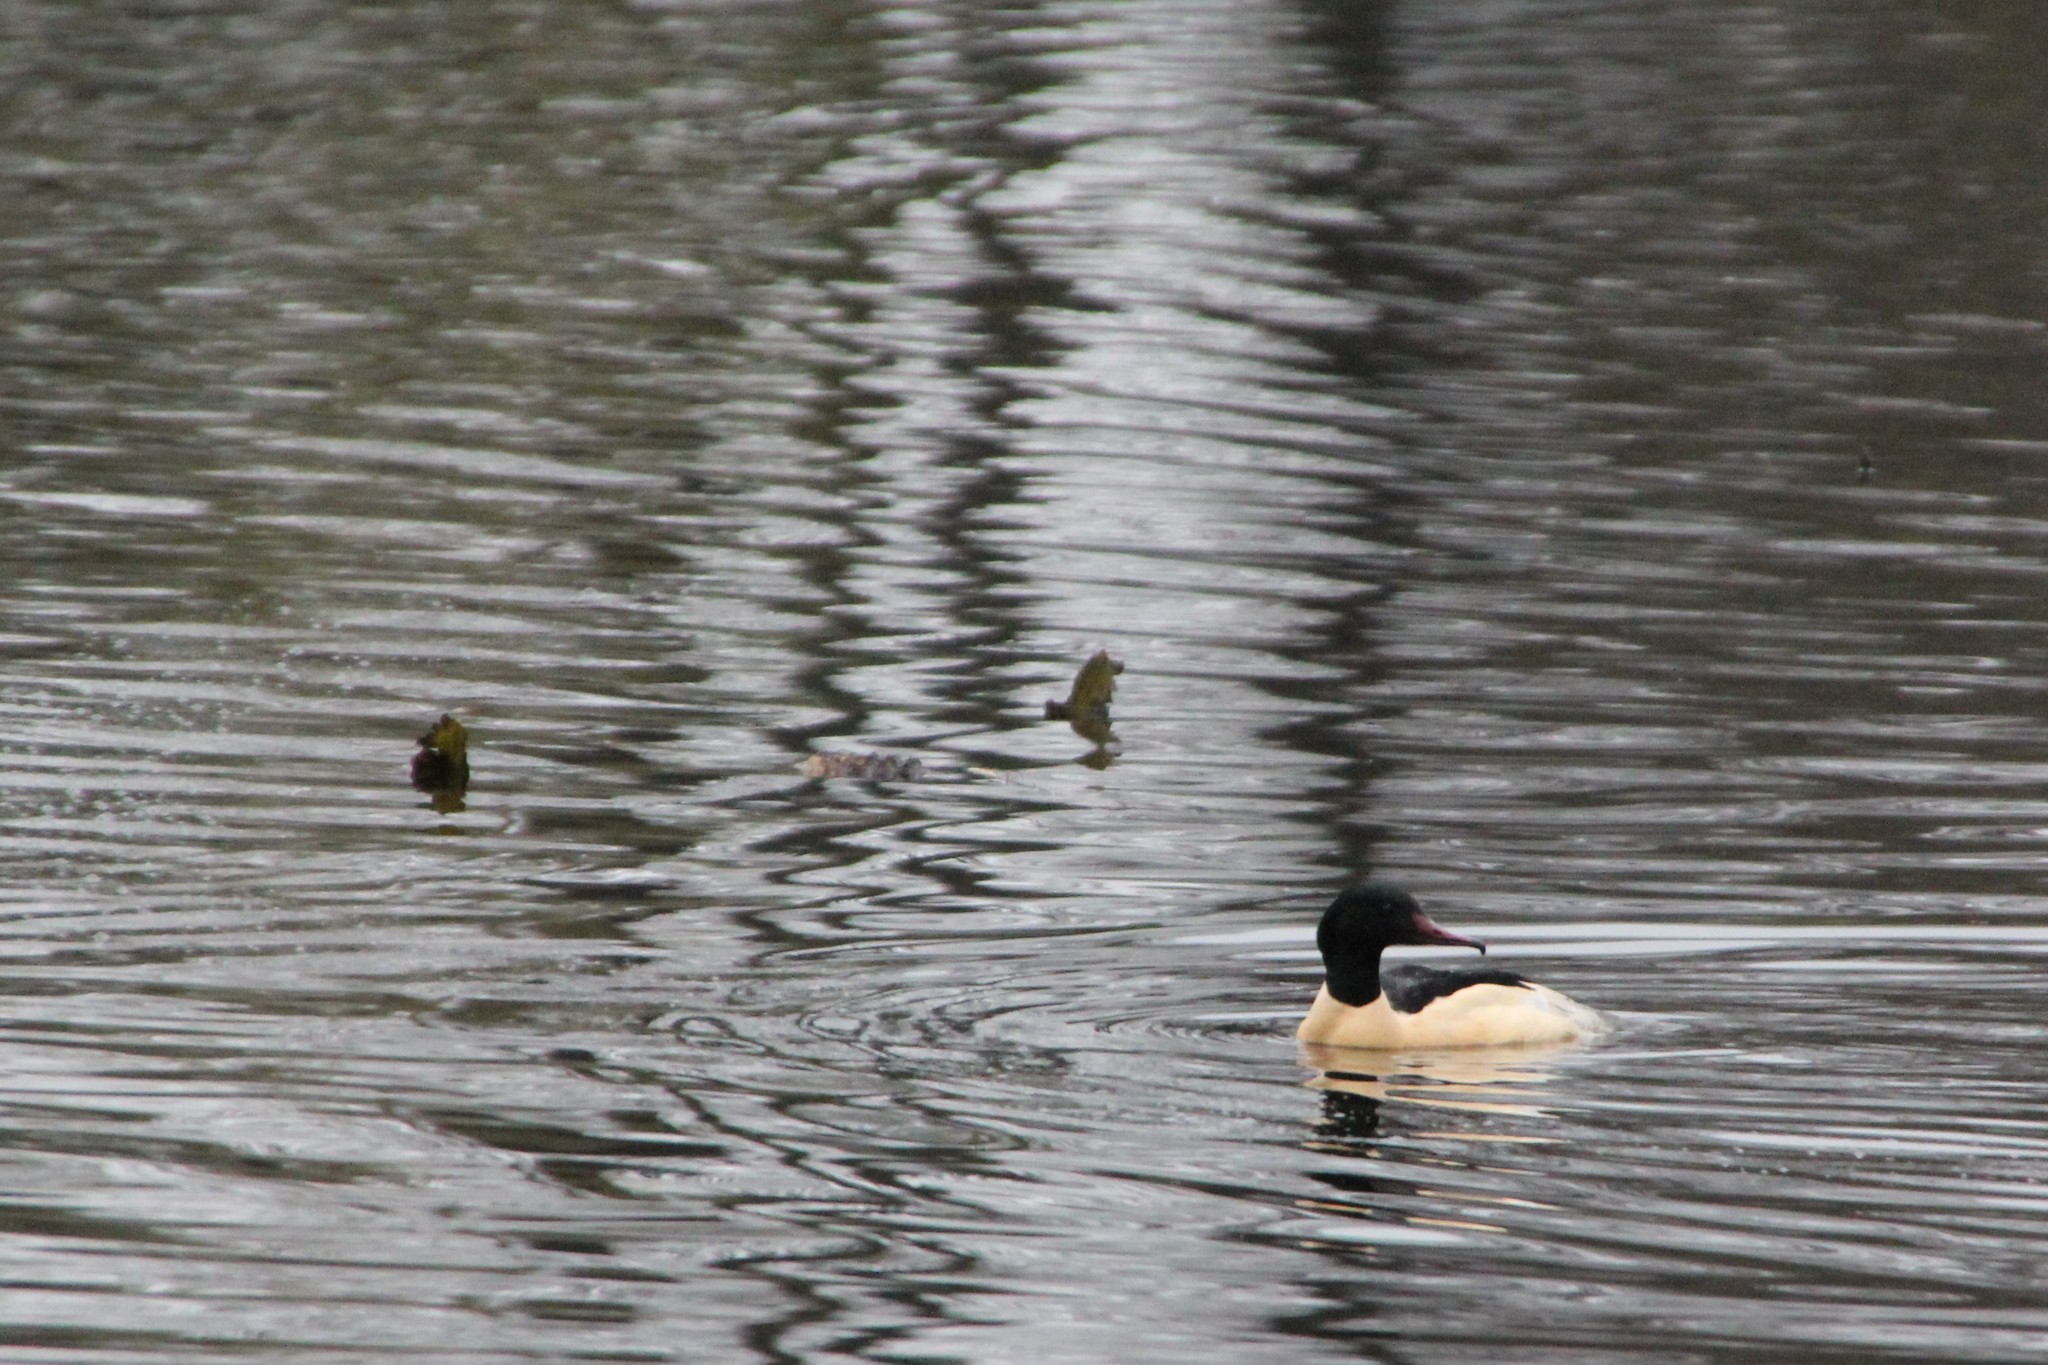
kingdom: Animalia
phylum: Chordata
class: Aves
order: Anseriformes
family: Anatidae
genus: Mergus
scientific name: Mergus merganser
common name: Common merganser
